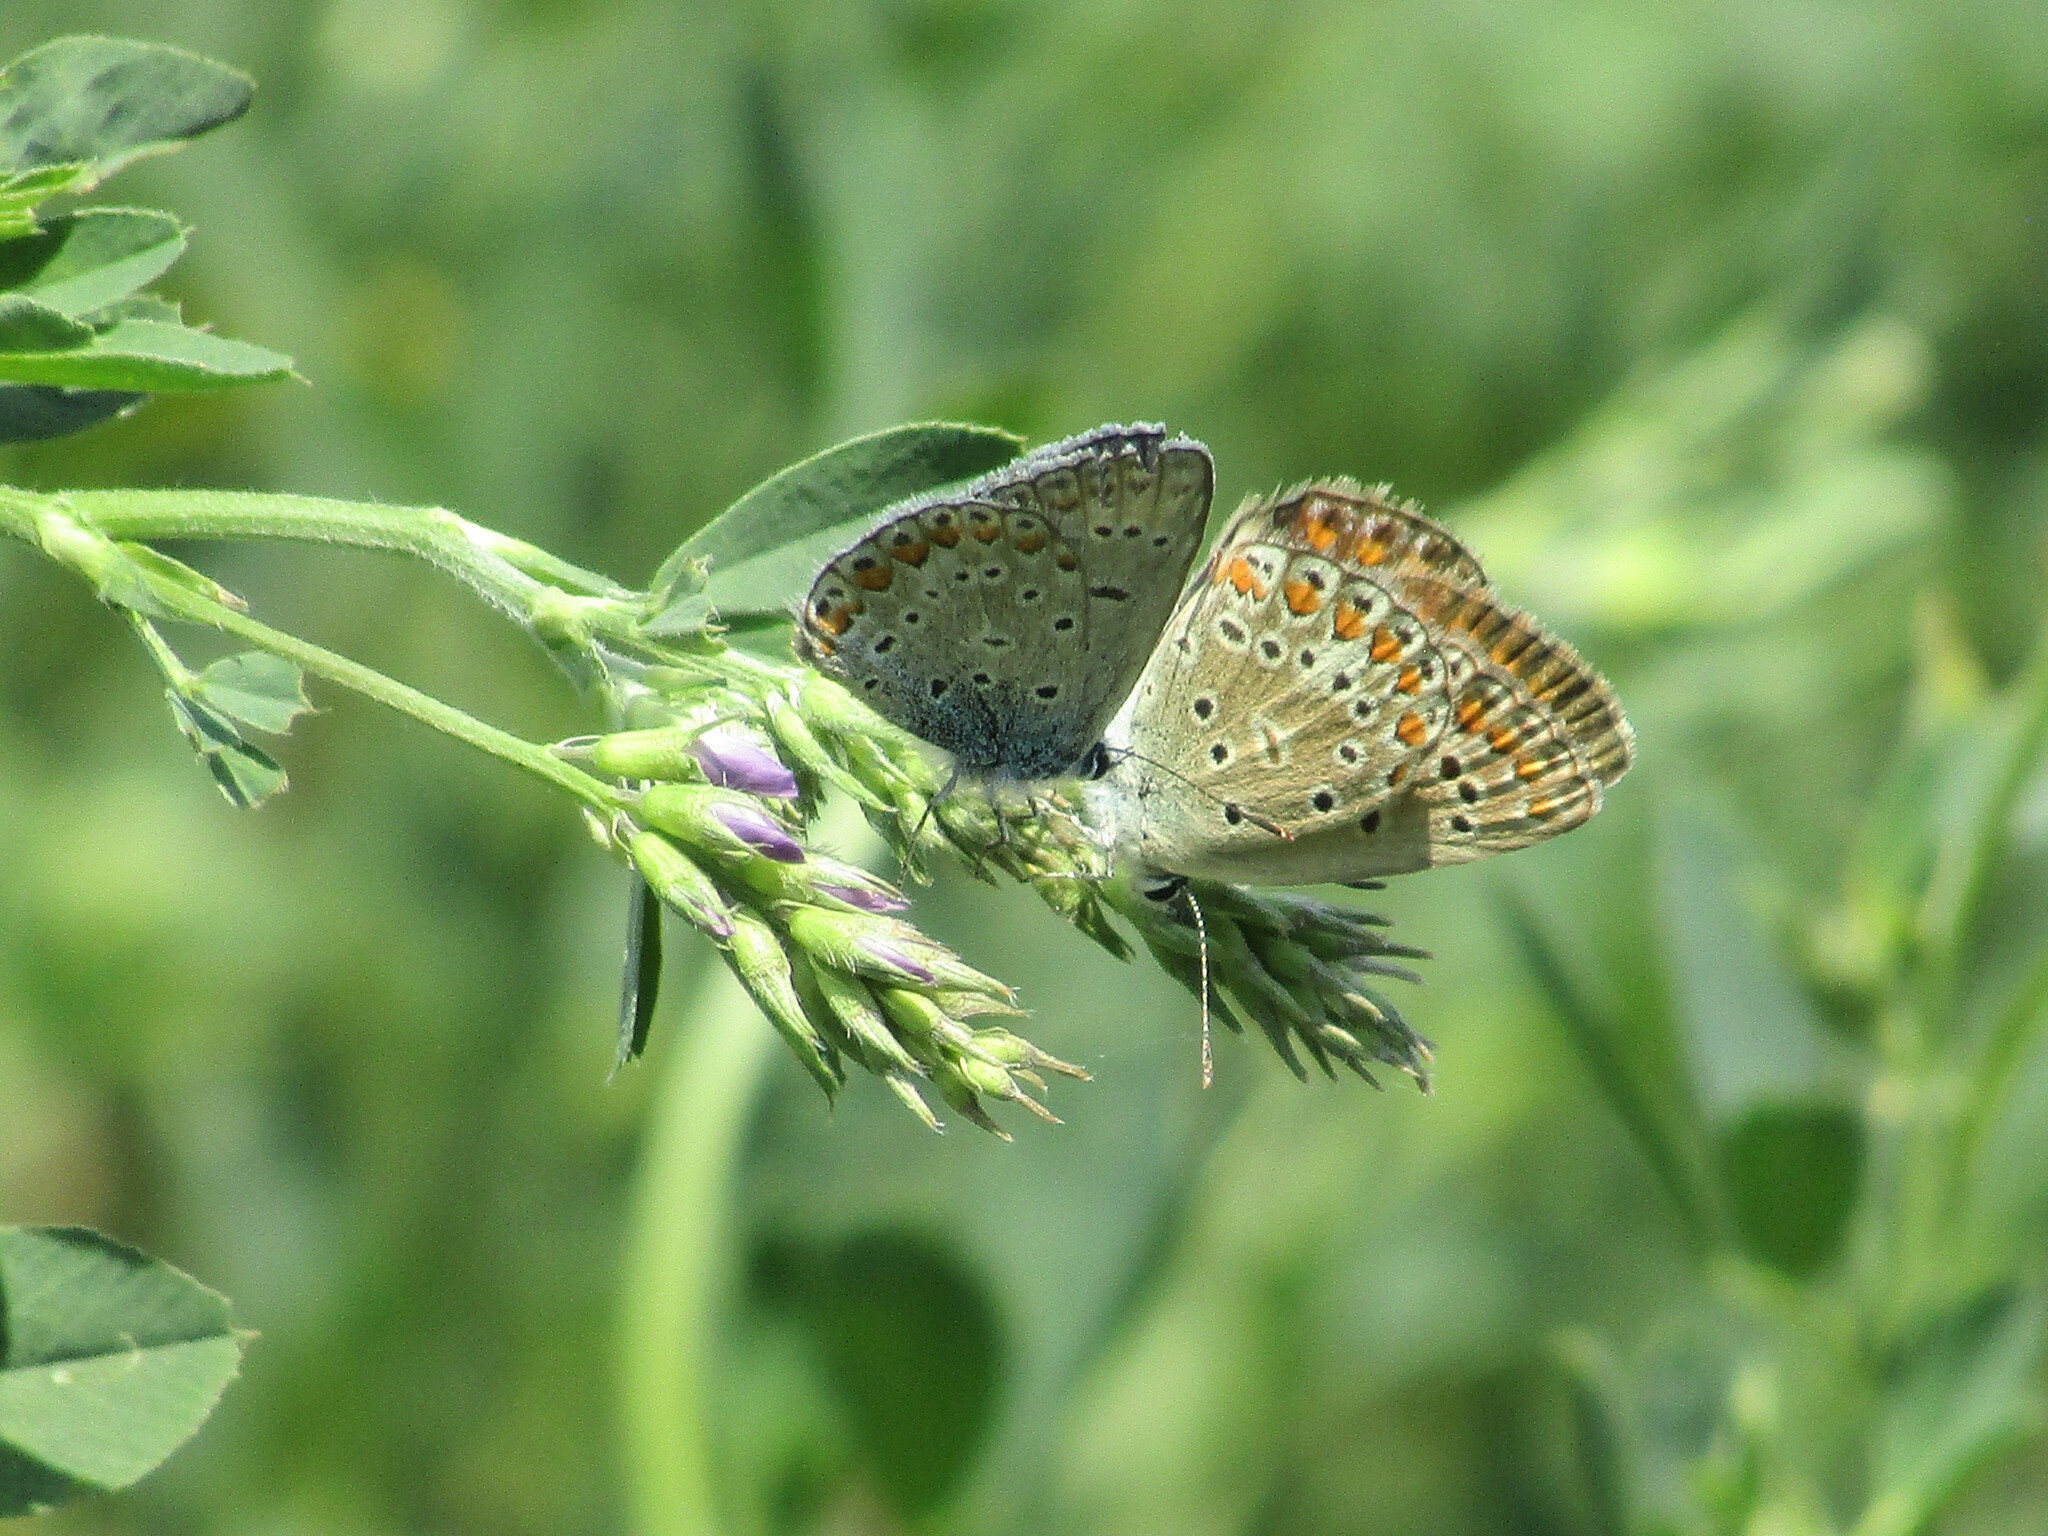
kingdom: Animalia
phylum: Arthropoda
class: Insecta
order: Lepidoptera
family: Lycaenidae
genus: Polyommatus
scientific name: Polyommatus icarus
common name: Common blue
